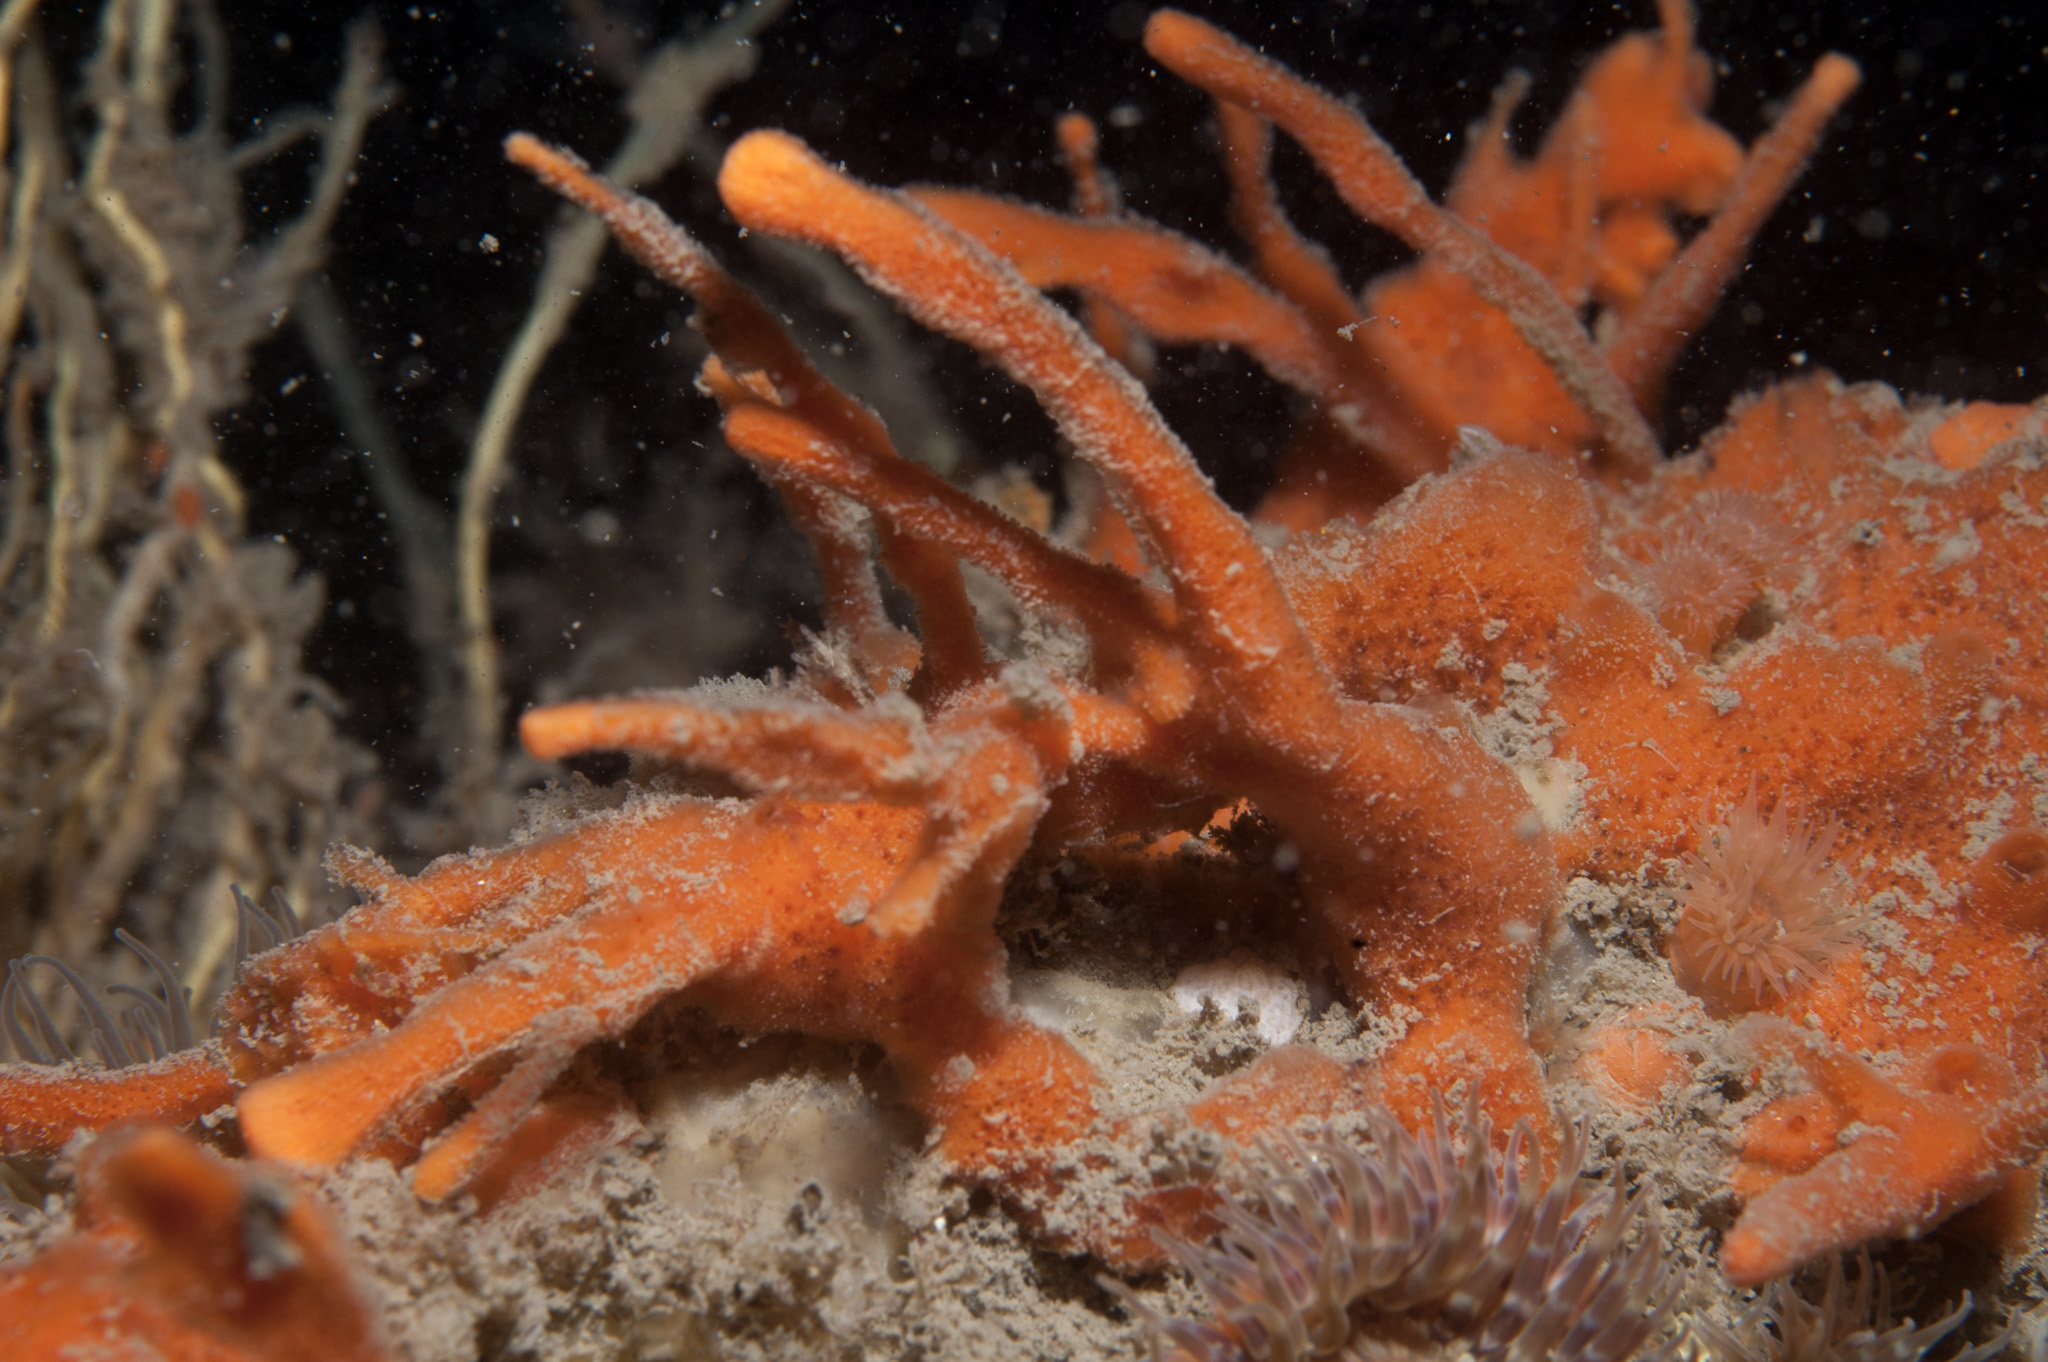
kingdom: Animalia
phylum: Porifera
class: Demospongiae
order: Poecilosclerida
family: Esperiopsidae
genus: Amphilectus
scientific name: Amphilectus fucorum
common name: Carrot-sponge
